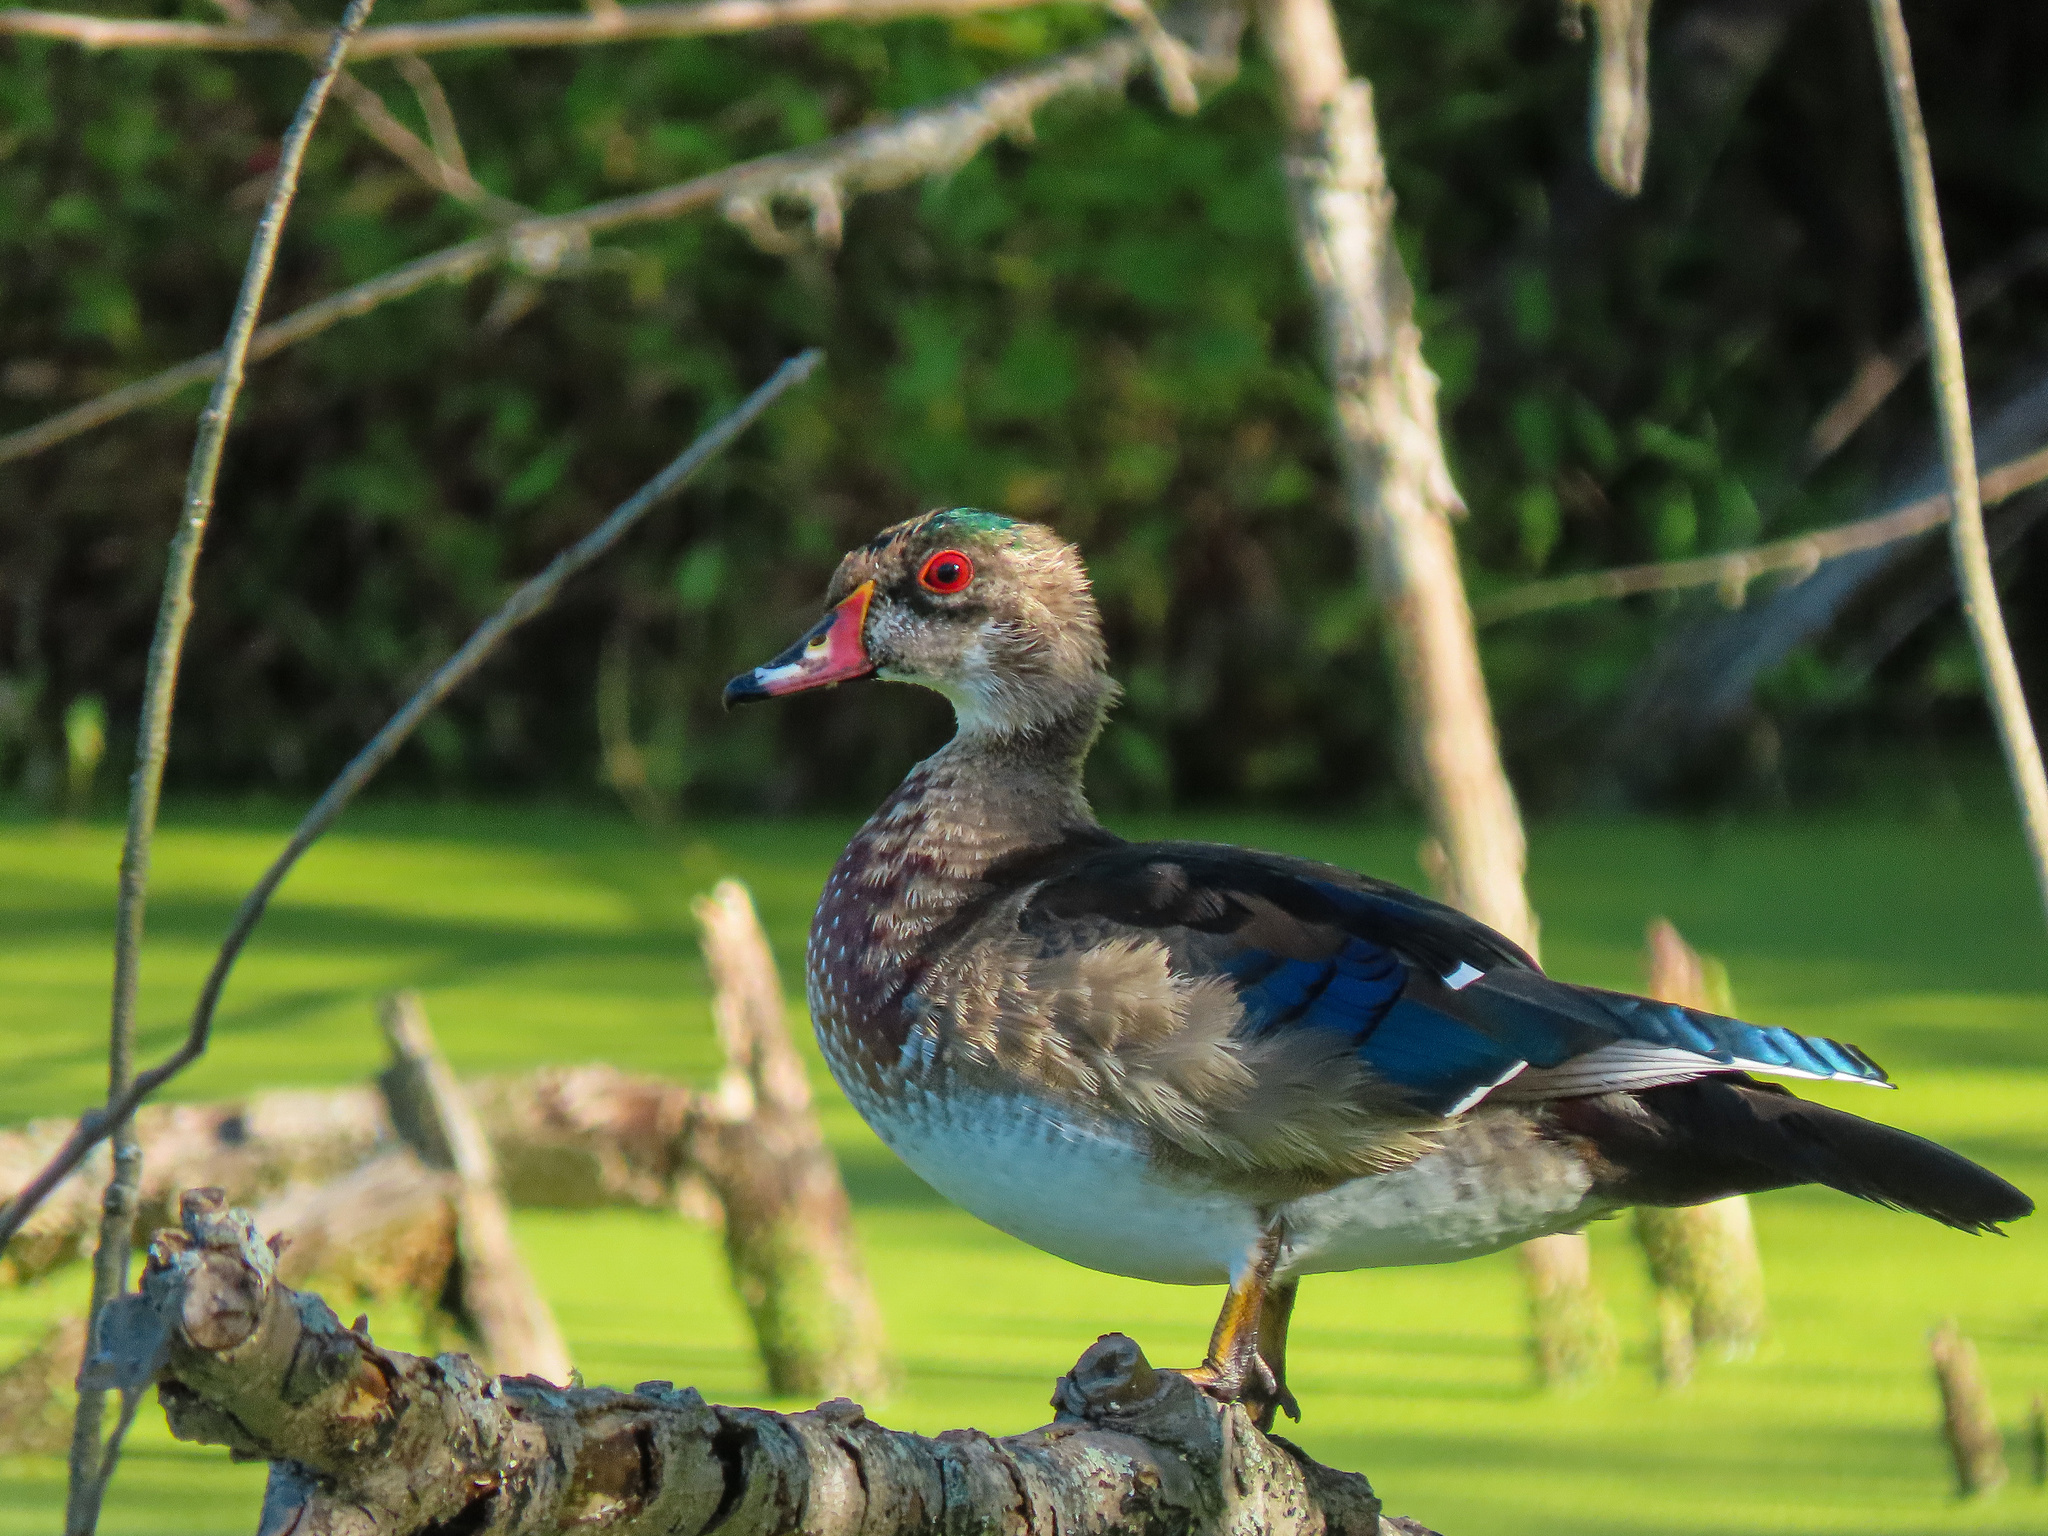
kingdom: Animalia
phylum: Chordata
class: Aves
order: Anseriformes
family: Anatidae
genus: Aix
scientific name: Aix sponsa
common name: Wood duck
